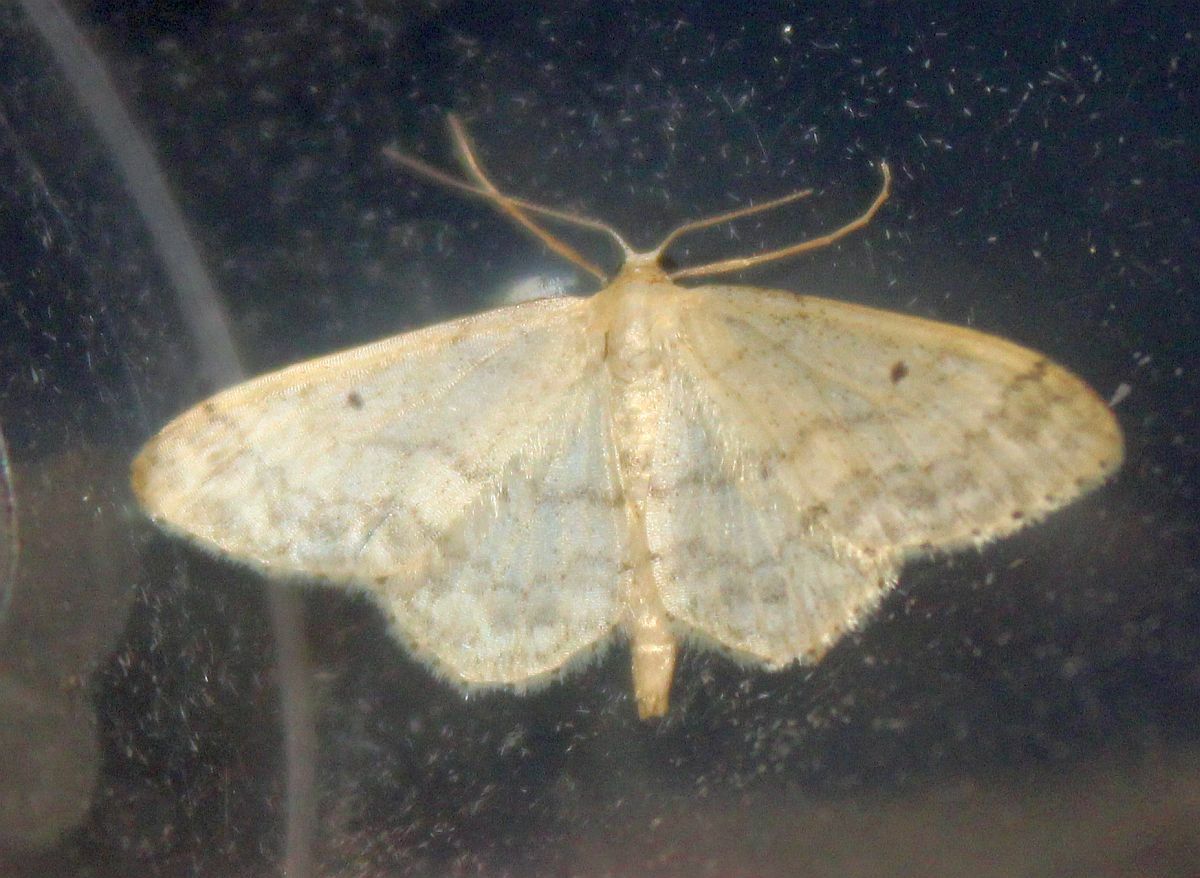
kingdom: Animalia
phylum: Arthropoda
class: Insecta
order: Lepidoptera
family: Geometridae
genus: Idaea
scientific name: Idaea biselata
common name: Small fan-footed wave
